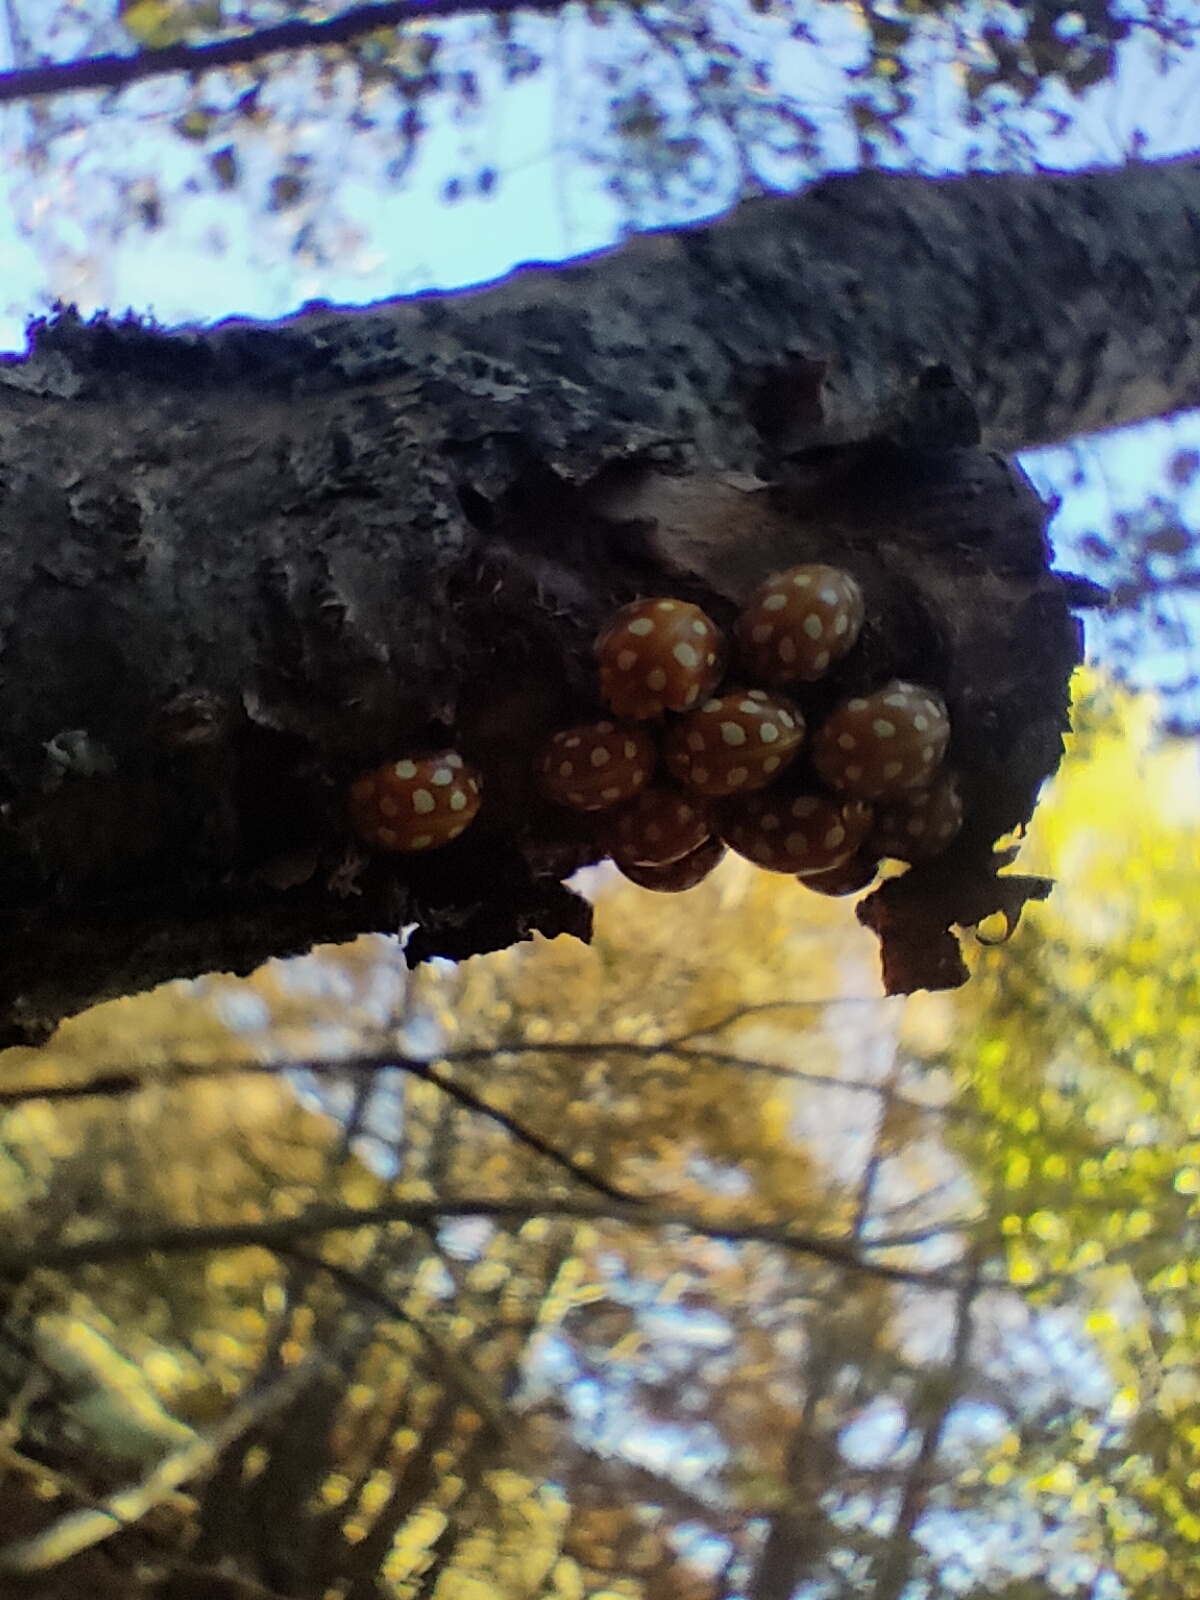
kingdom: Animalia
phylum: Arthropoda
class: Insecta
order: Coleoptera
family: Coccinellidae
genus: Halyzia
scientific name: Halyzia sedecimguttata
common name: Orange ladybird
